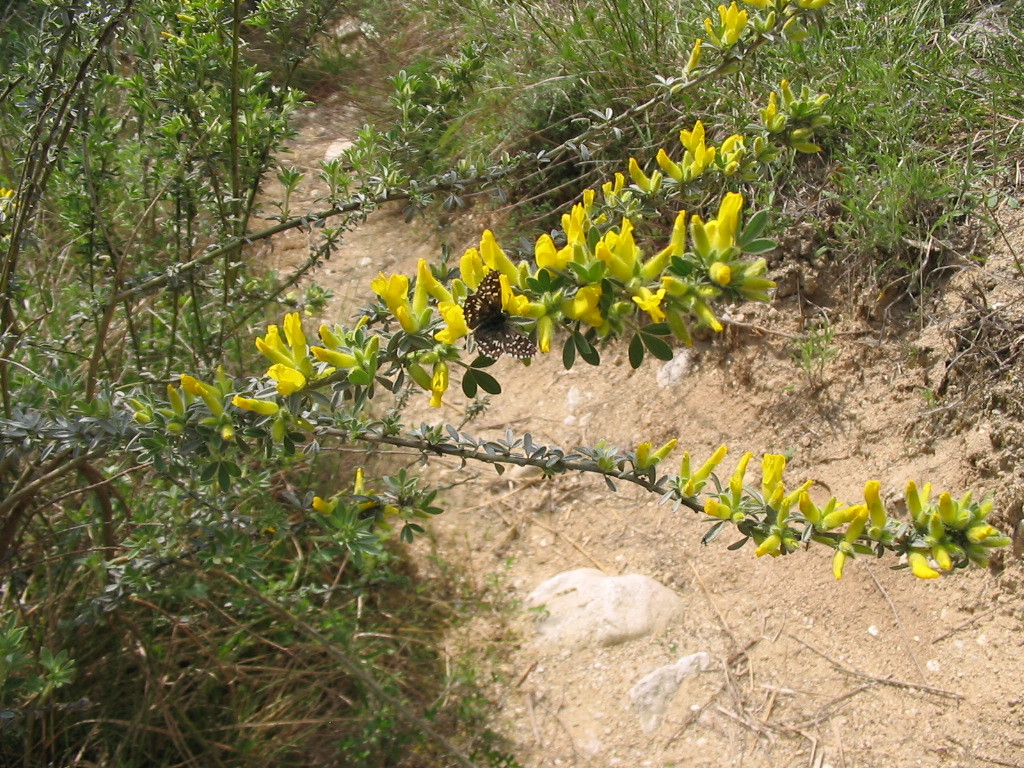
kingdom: Animalia
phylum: Arthropoda
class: Insecta
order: Lepidoptera
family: Hesperiidae
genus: Pyrgus
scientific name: Pyrgus malvae
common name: Grizzled skipper
